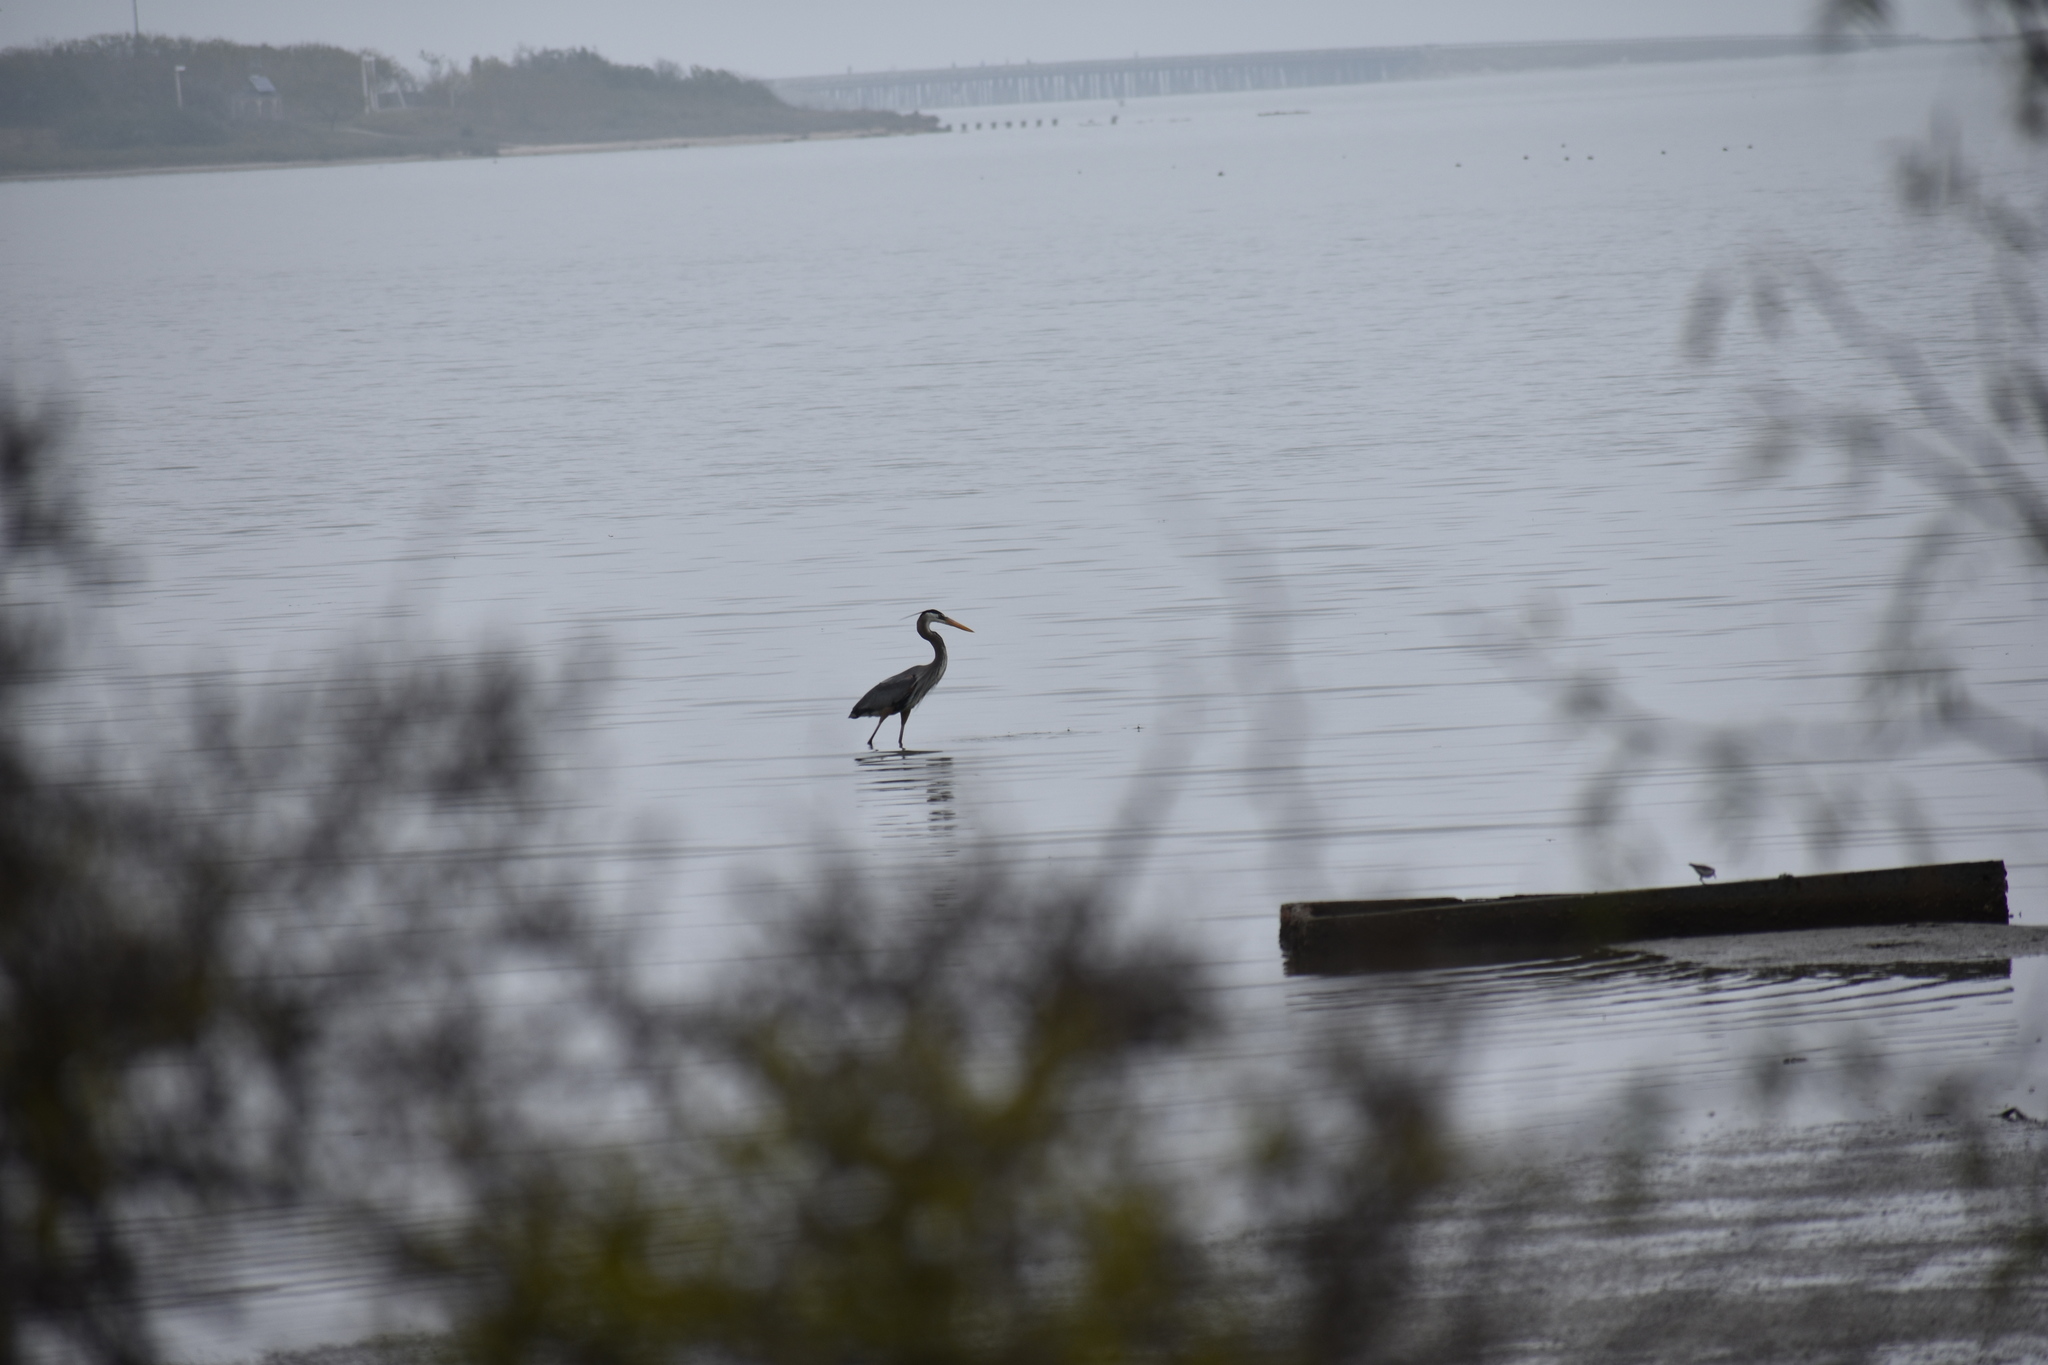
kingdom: Animalia
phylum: Chordata
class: Aves
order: Pelecaniformes
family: Ardeidae
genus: Ardea
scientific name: Ardea herodias
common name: Great blue heron
